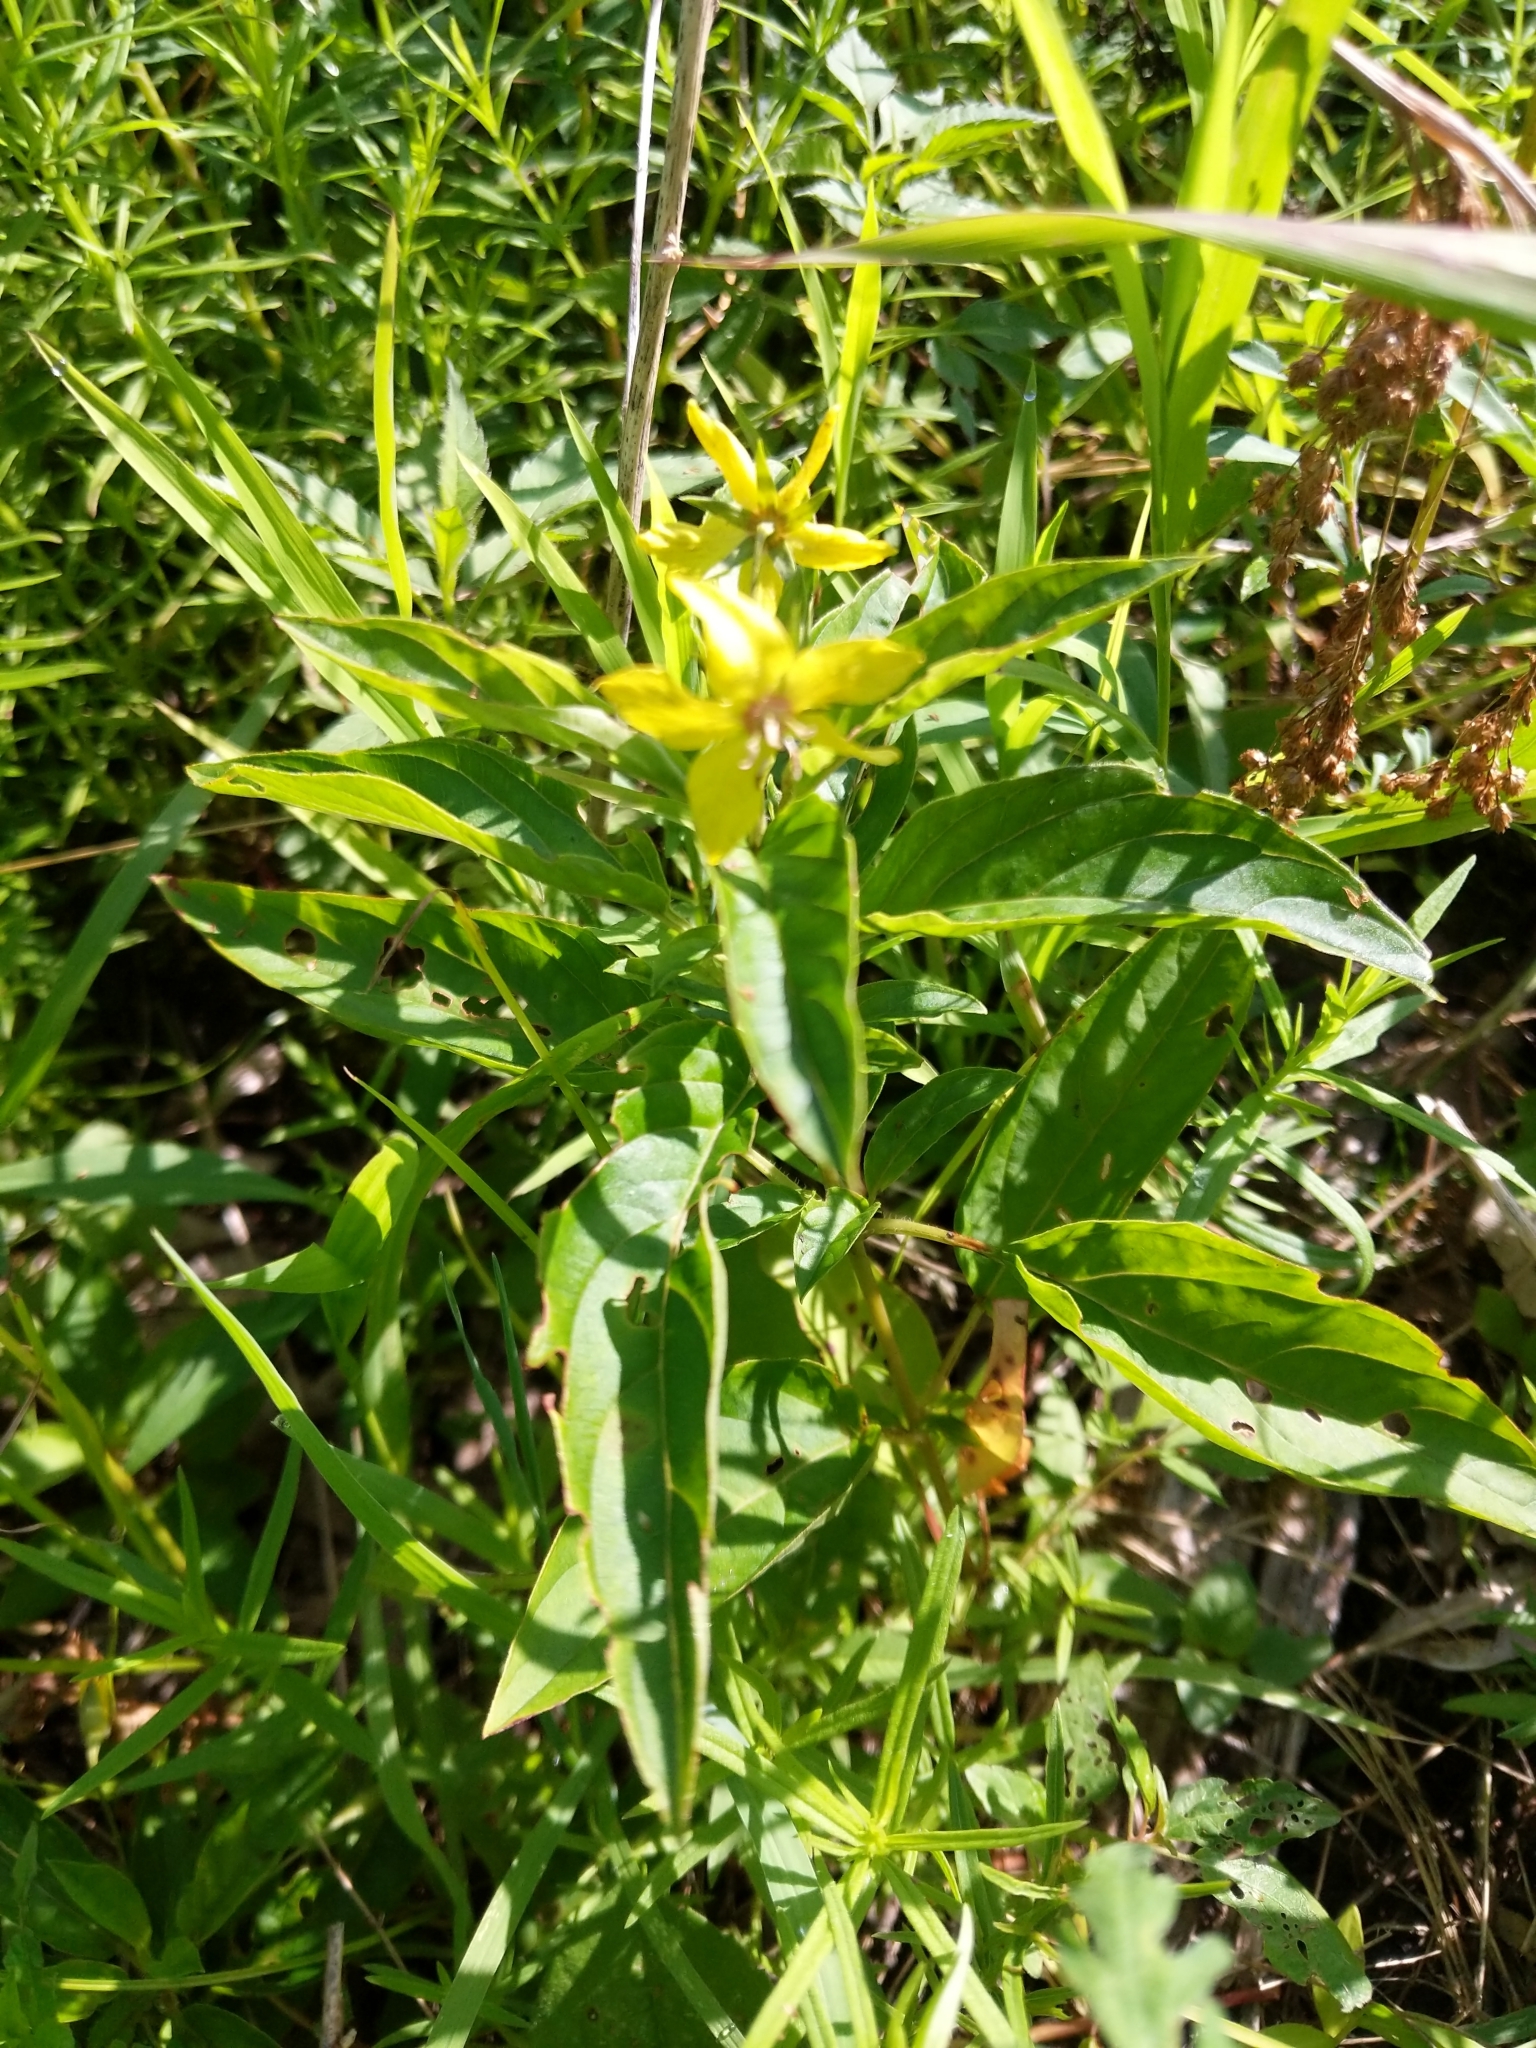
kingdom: Plantae
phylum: Tracheophyta
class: Magnoliopsida
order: Ericales
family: Primulaceae
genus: Lysimachia
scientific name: Lysimachia ciliata
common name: Fringed loosestrife
